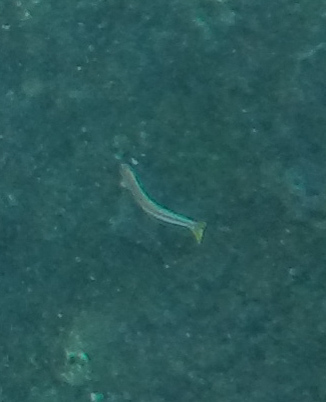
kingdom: Animalia
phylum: Chordata
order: Perciformes
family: Blenniidae
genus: Plagiotremus
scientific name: Plagiotremus goslinei
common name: Biting blenny
